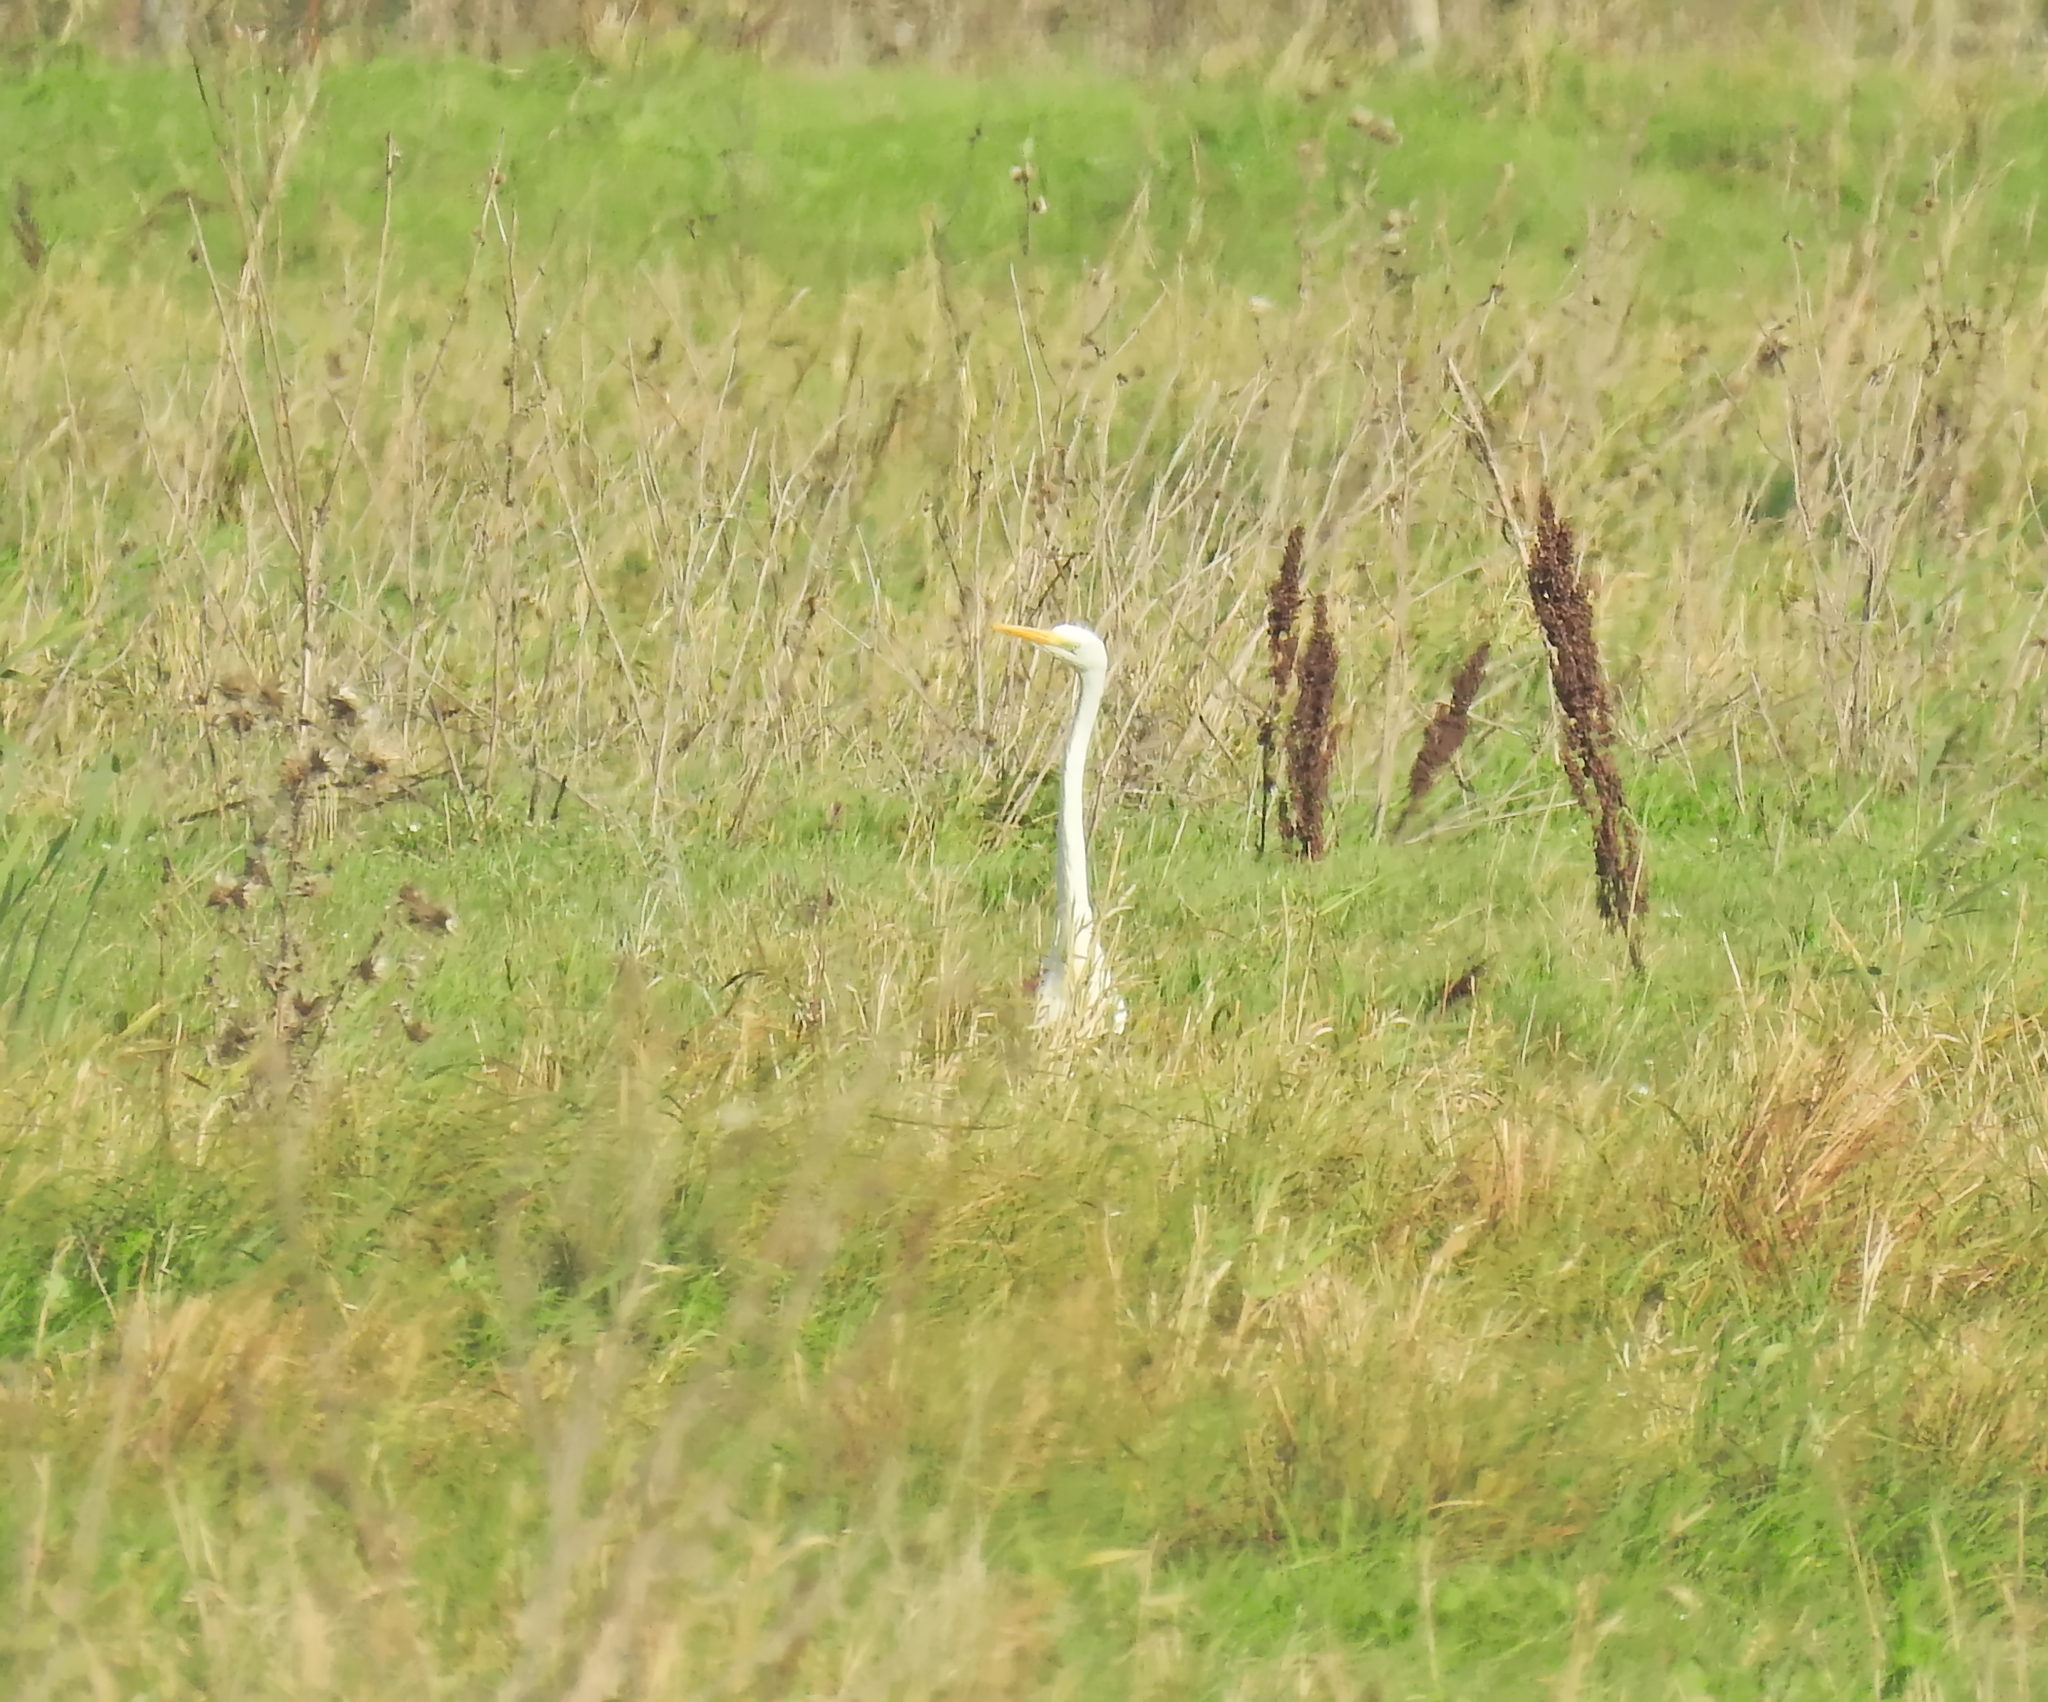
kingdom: Animalia
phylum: Chordata
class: Aves
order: Pelecaniformes
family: Ardeidae
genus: Ardea
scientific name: Ardea alba
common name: Great egret
